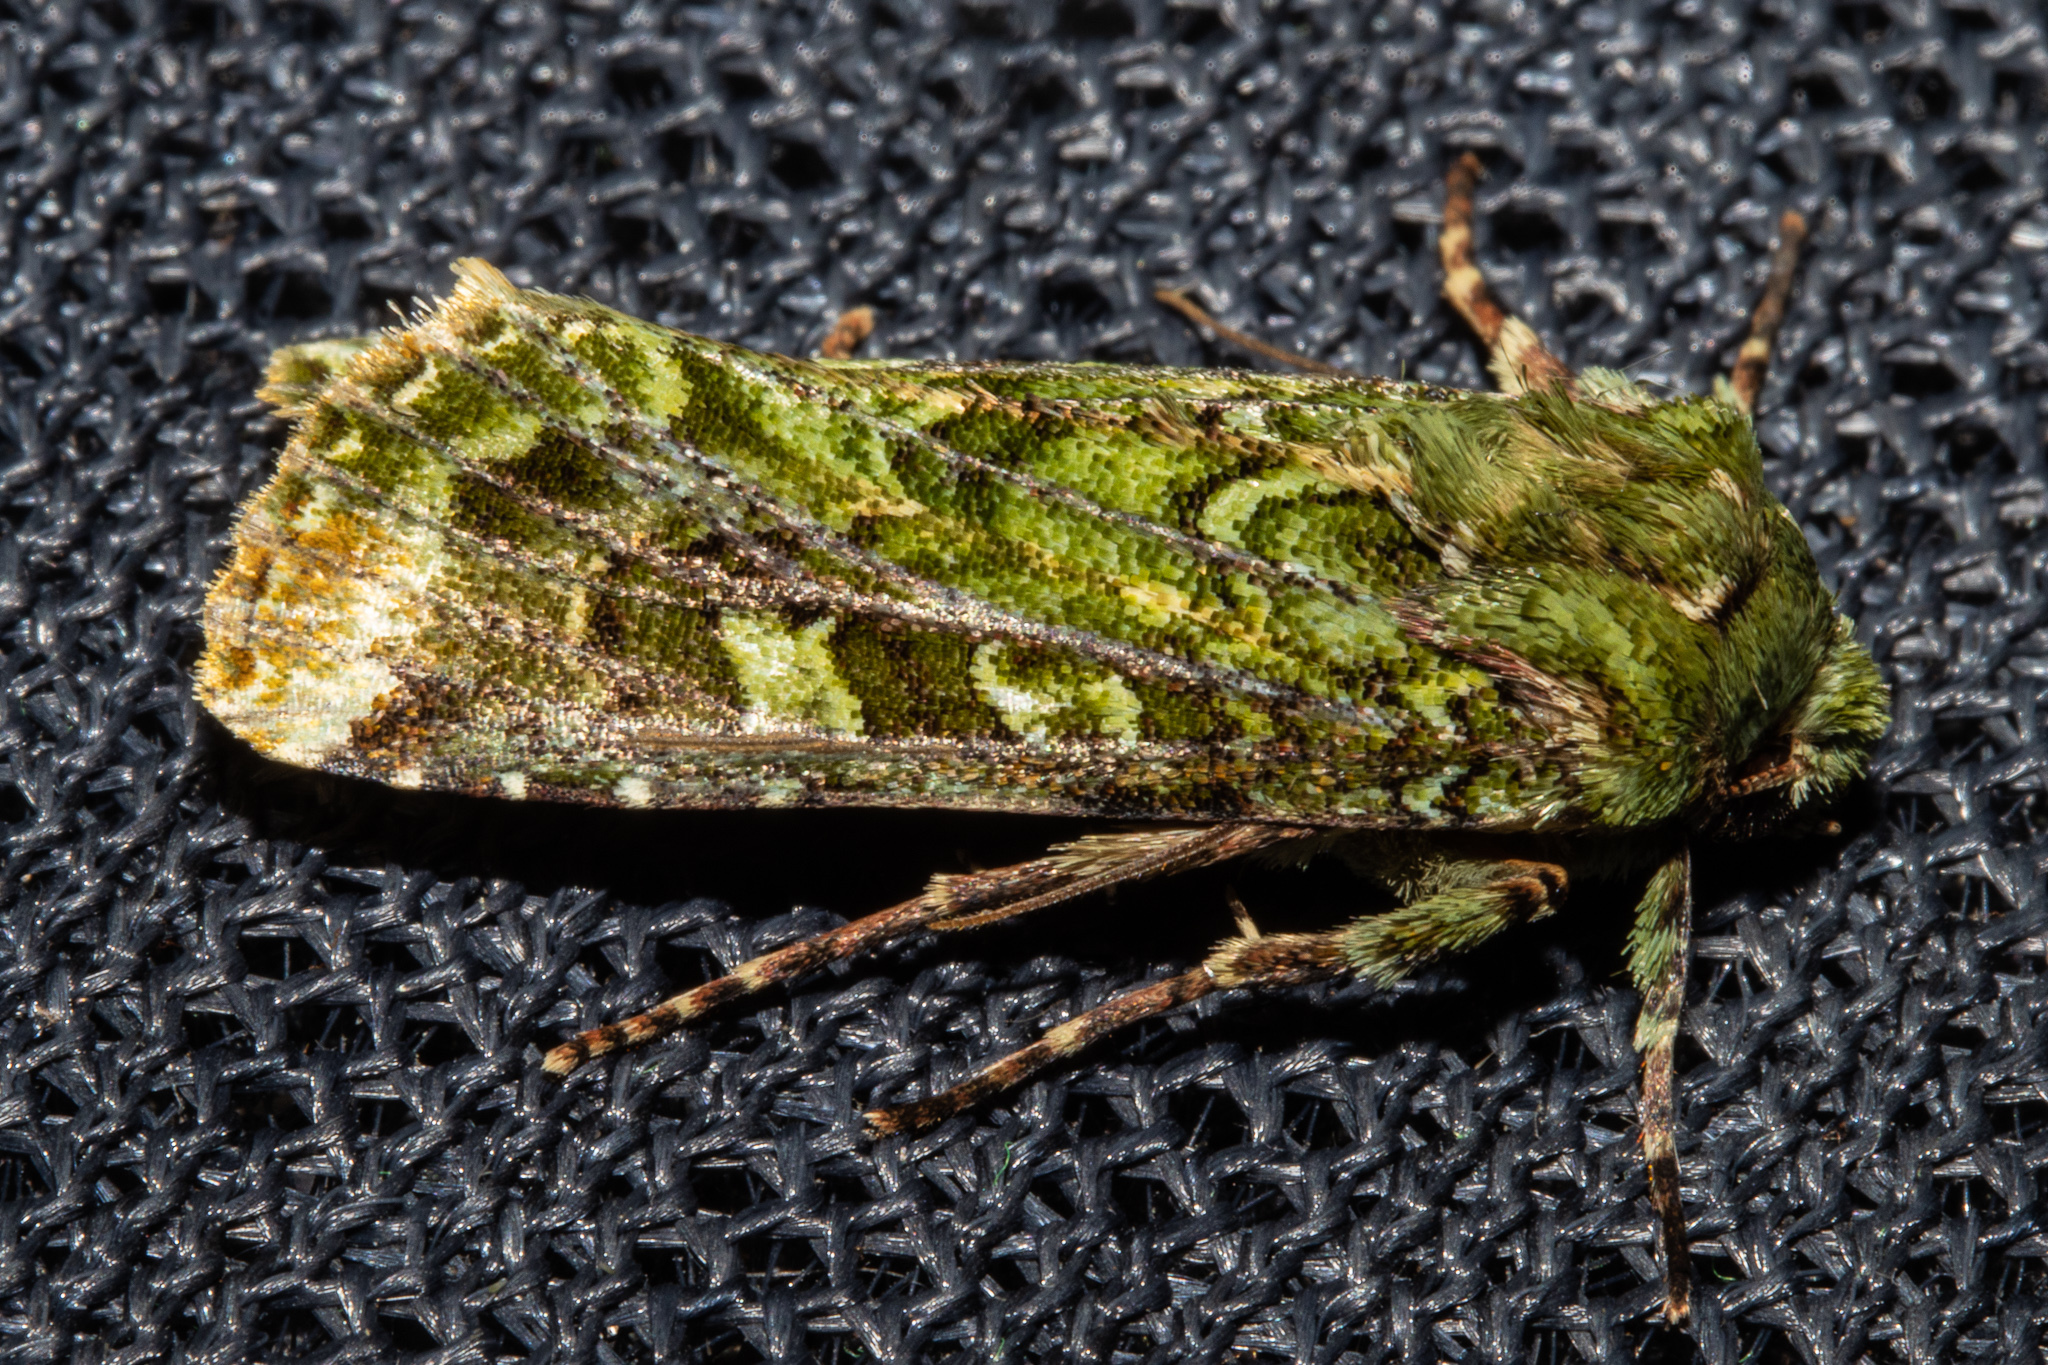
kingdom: Animalia
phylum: Arthropoda
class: Insecta
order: Lepidoptera
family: Noctuidae
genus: Feredayia
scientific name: Feredayia grammosa
